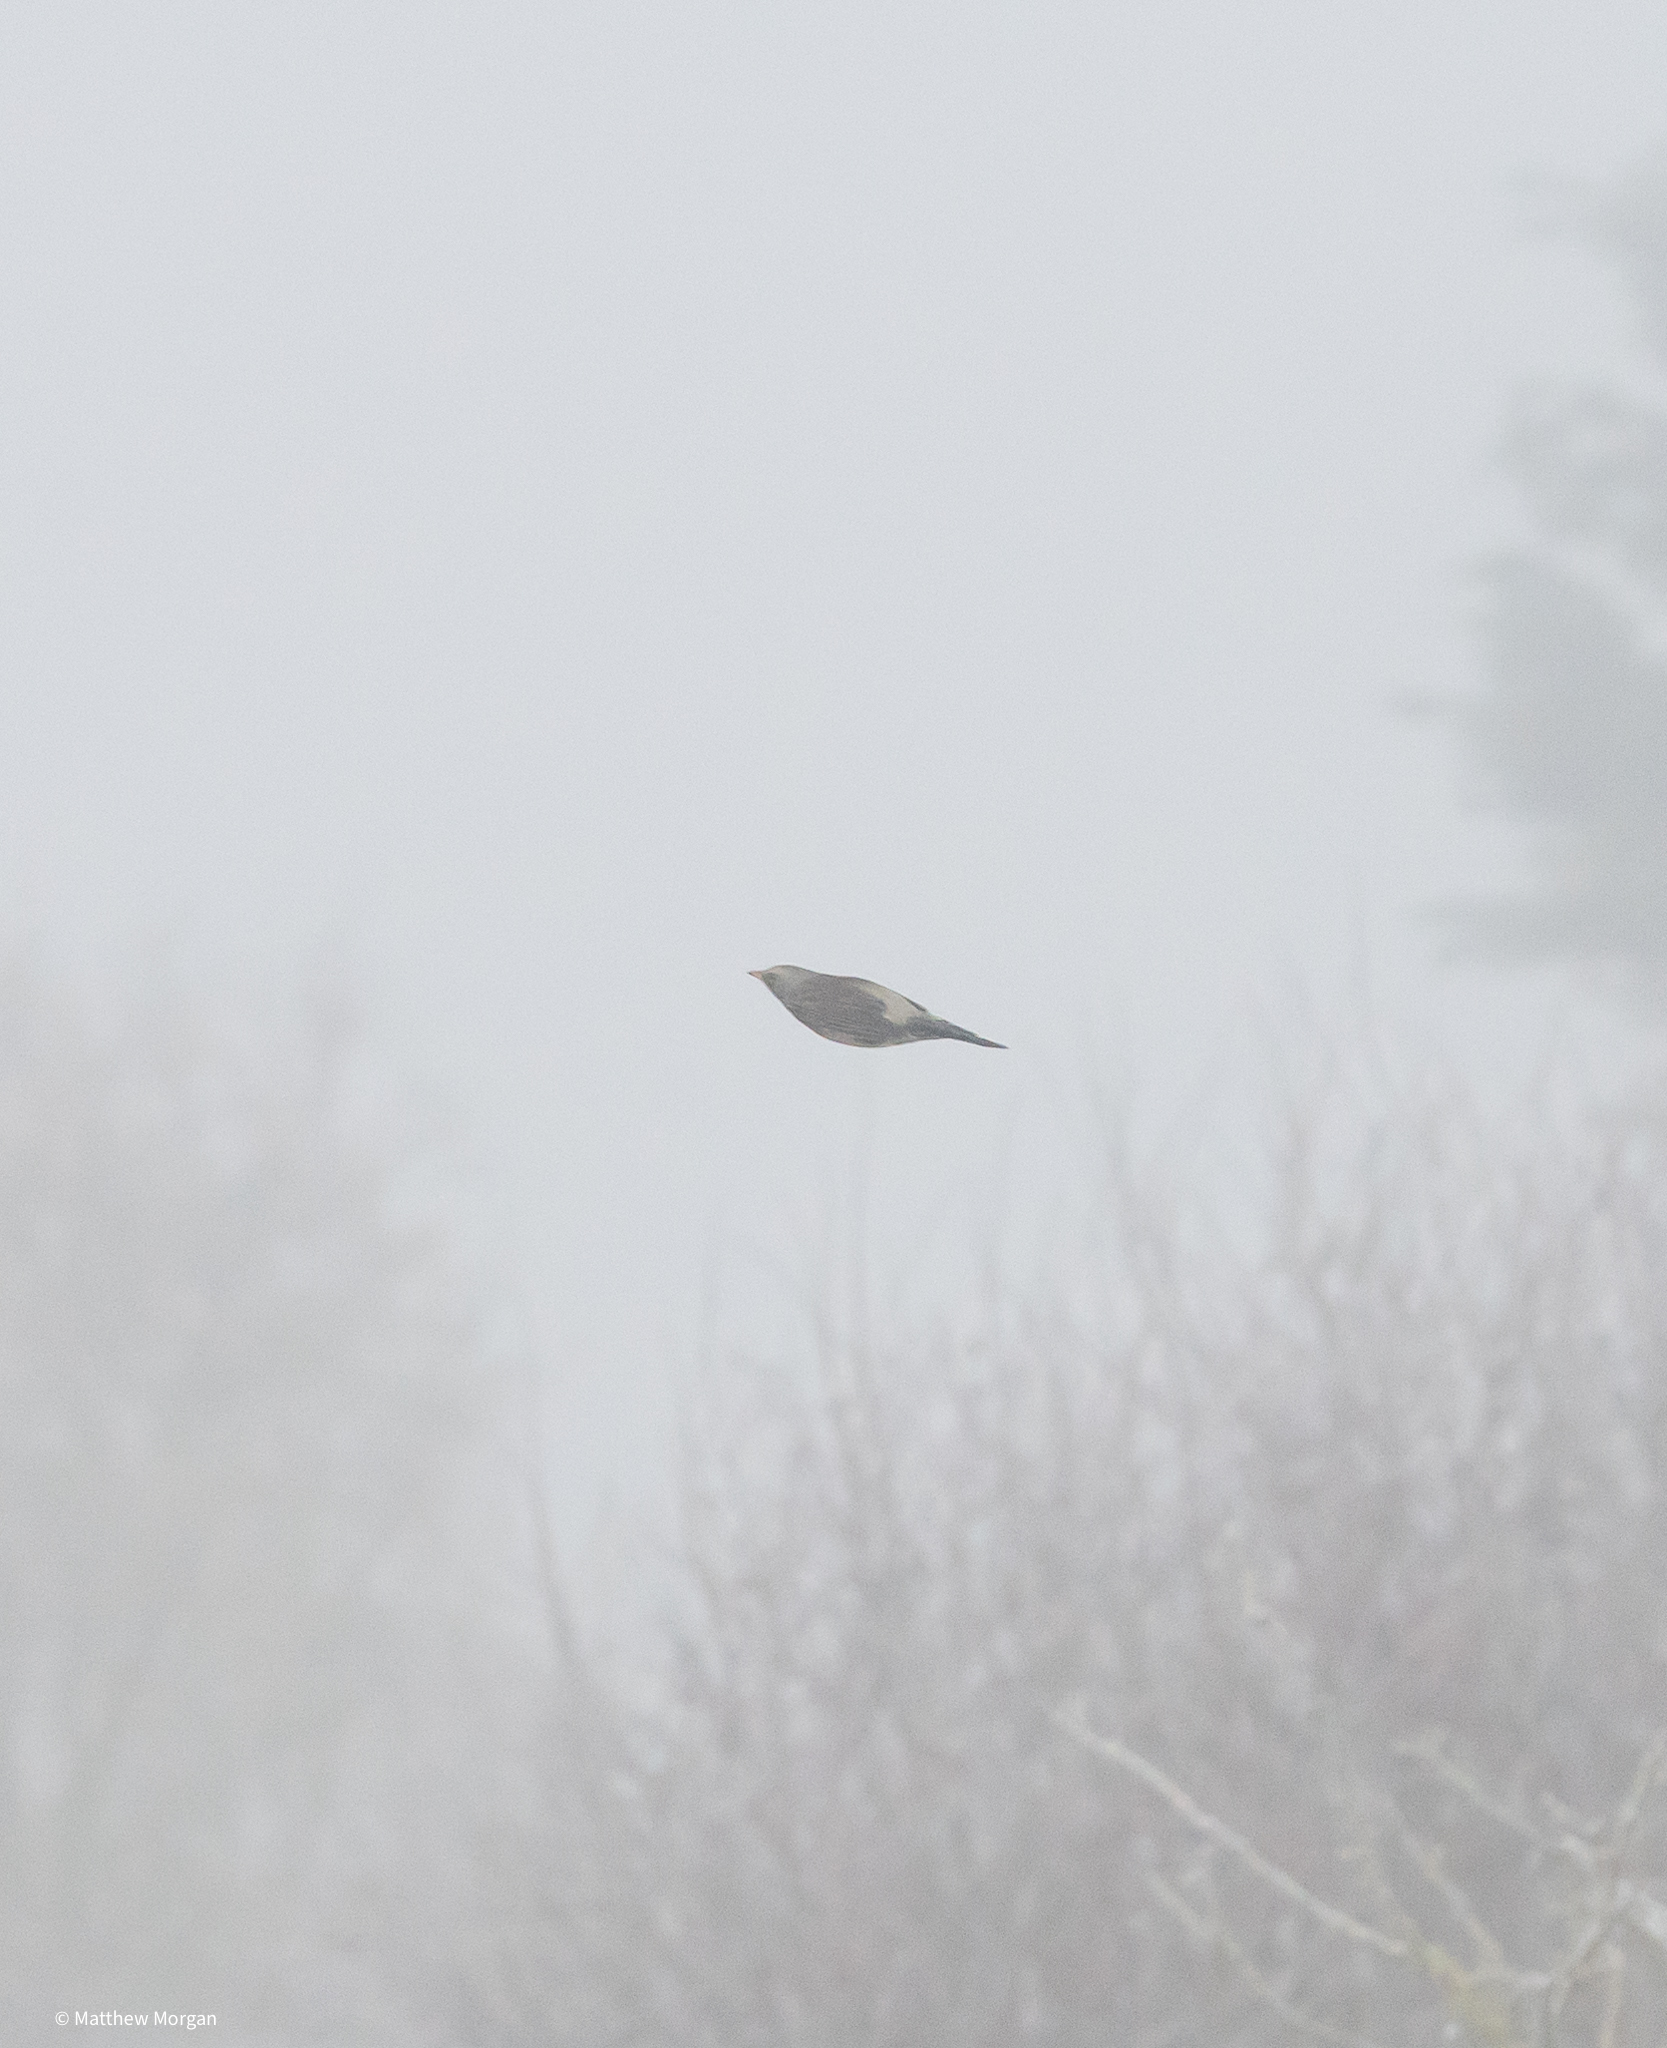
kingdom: Animalia
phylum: Chordata
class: Aves
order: Passeriformes
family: Turdidae
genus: Turdus
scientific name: Turdus pilaris
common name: Fieldfare
